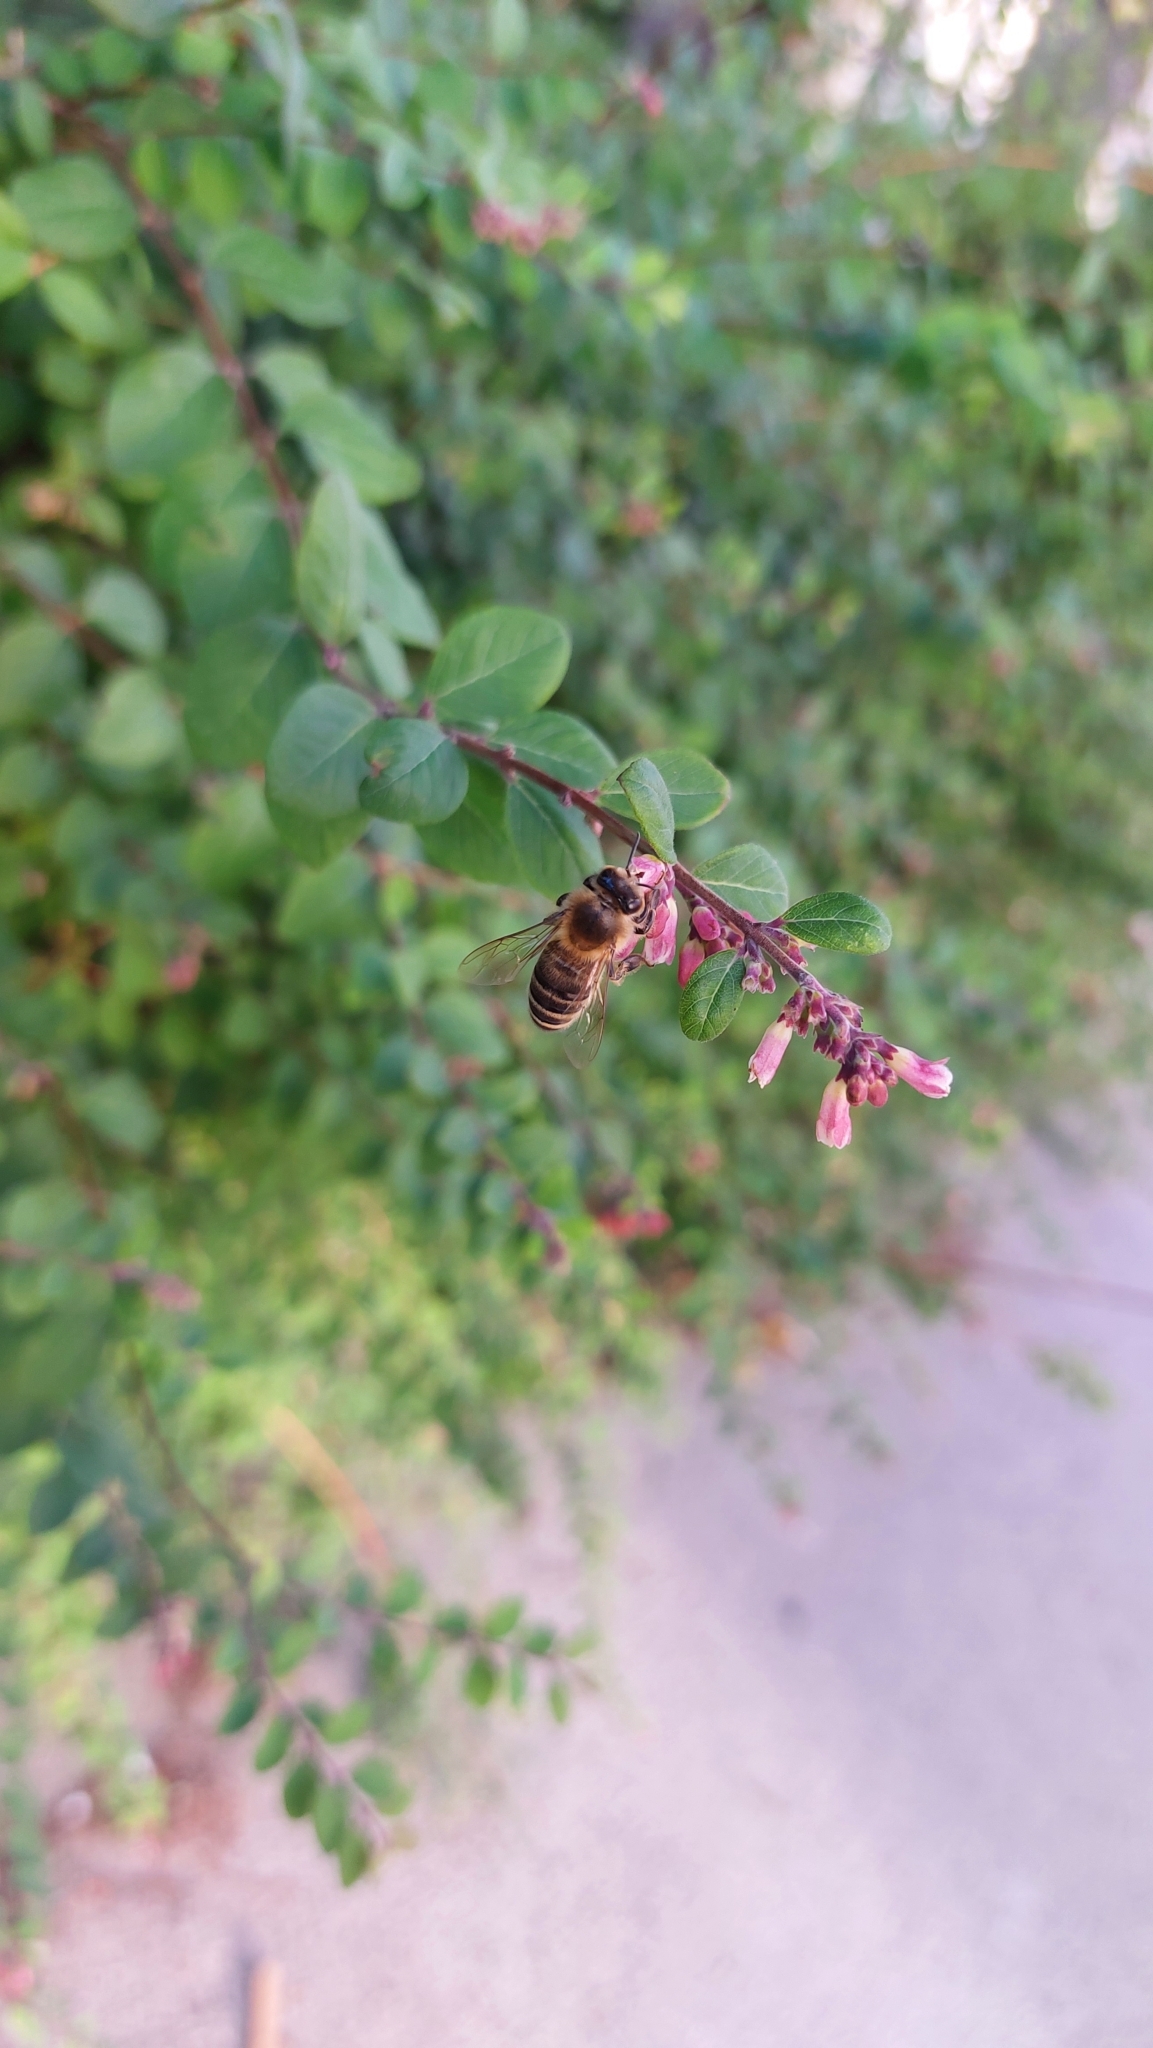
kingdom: Animalia
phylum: Arthropoda
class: Insecta
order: Hymenoptera
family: Apidae
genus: Apis
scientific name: Apis mellifera
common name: Honey bee
